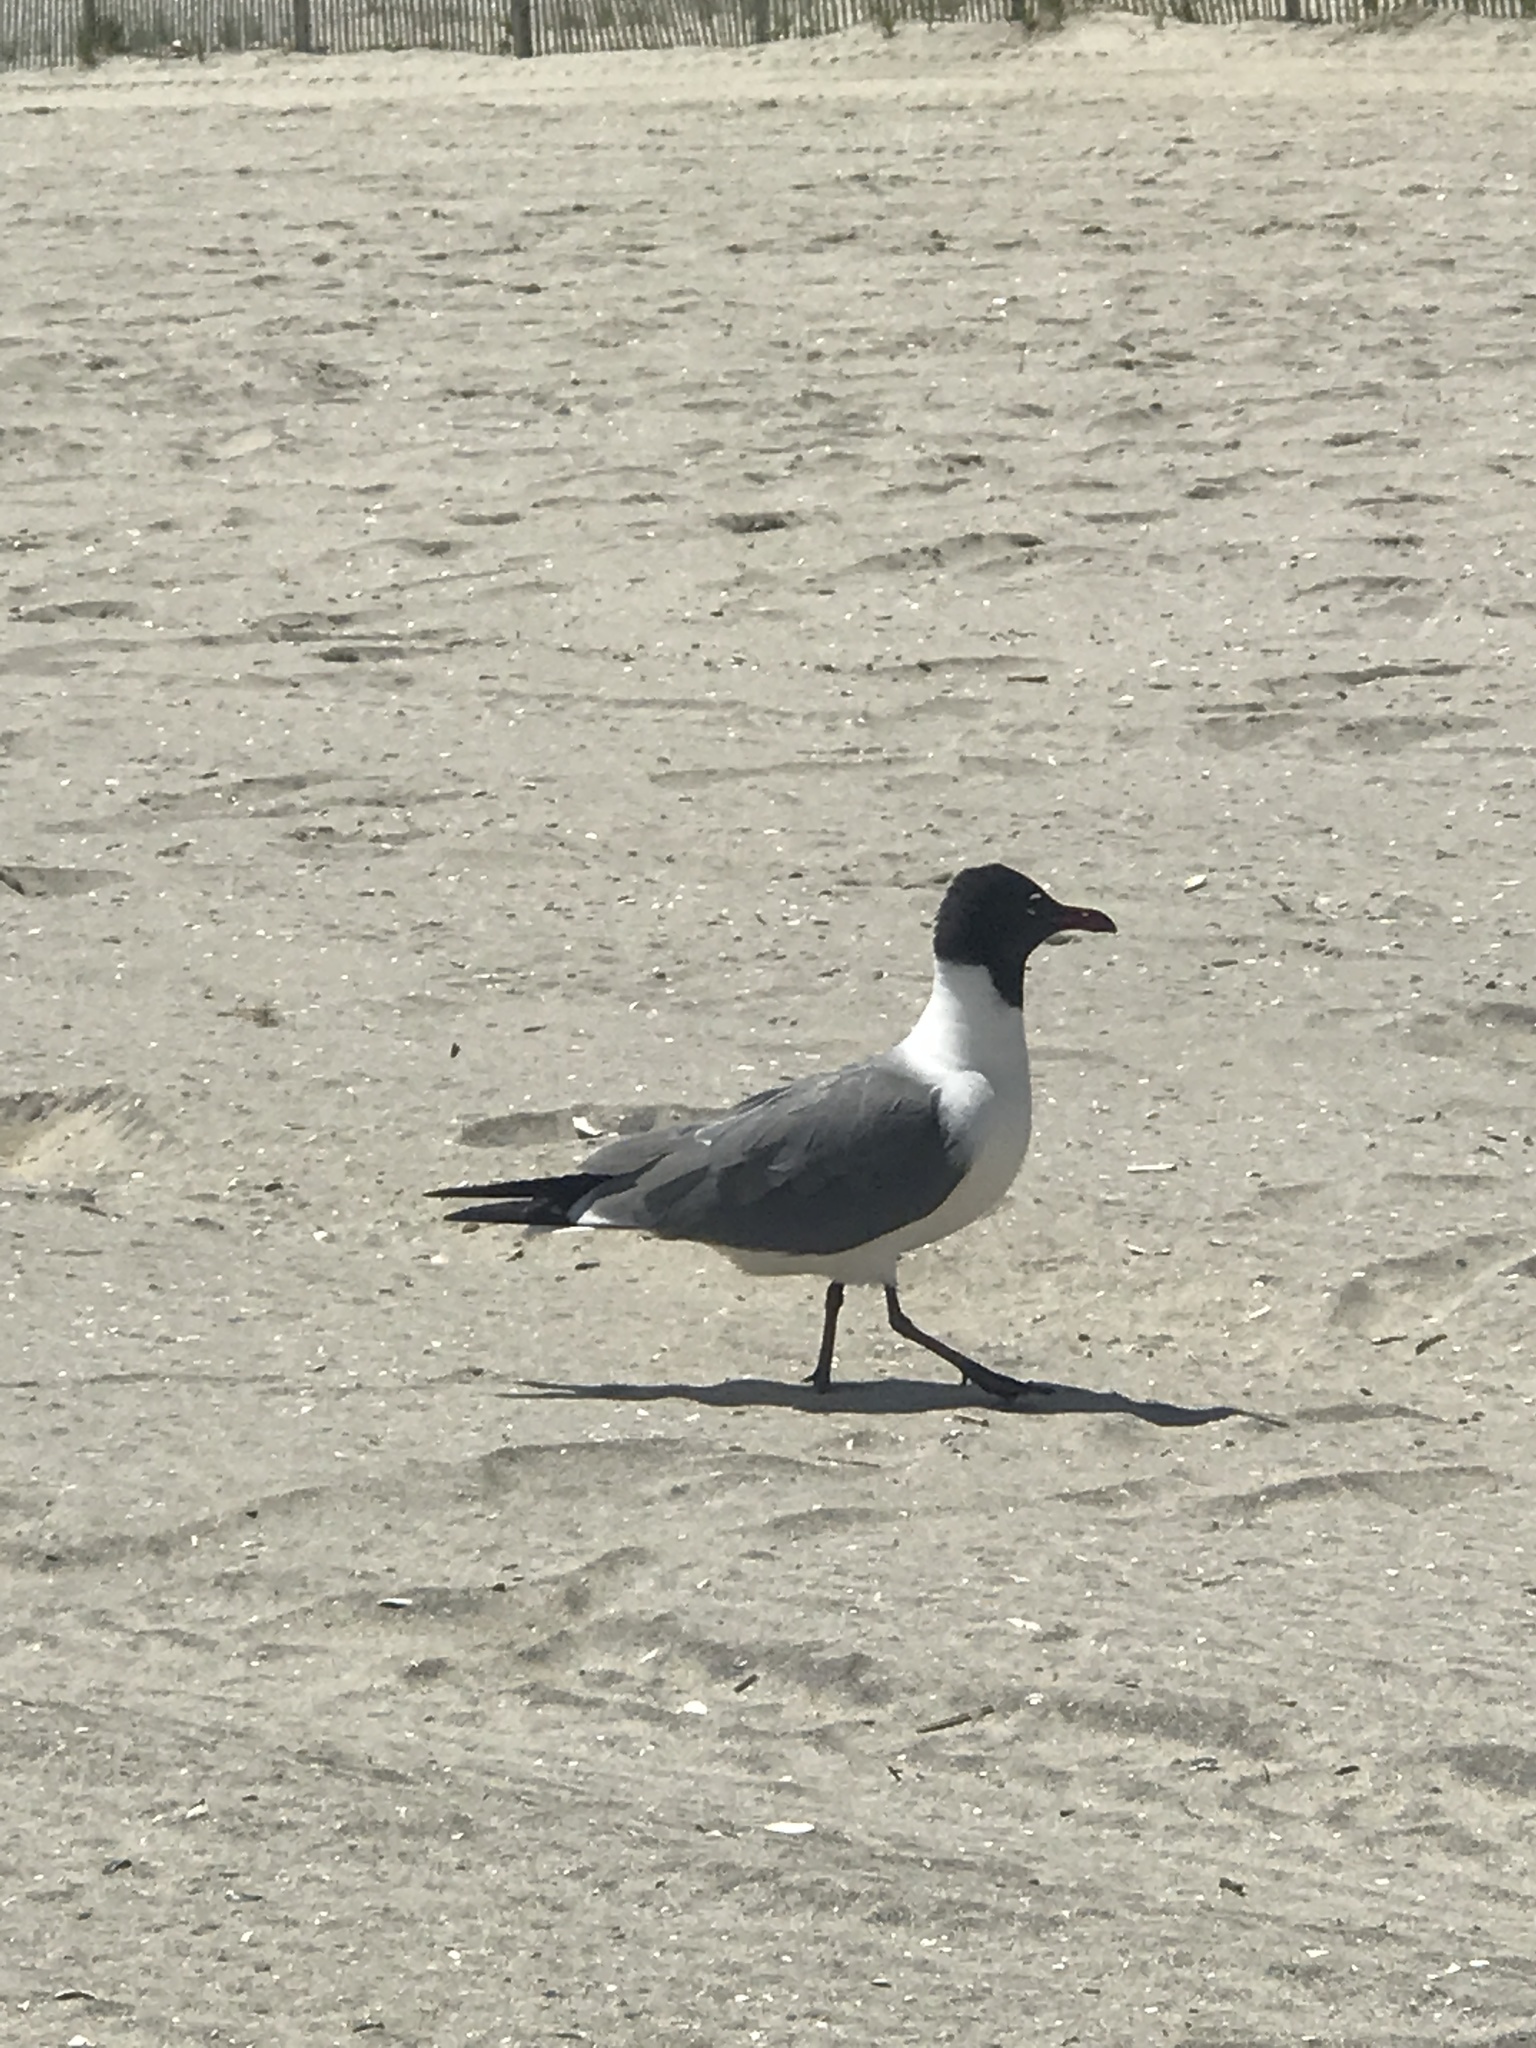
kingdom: Animalia
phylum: Chordata
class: Aves
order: Charadriiformes
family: Laridae
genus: Leucophaeus
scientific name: Leucophaeus atricilla
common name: Laughing gull
